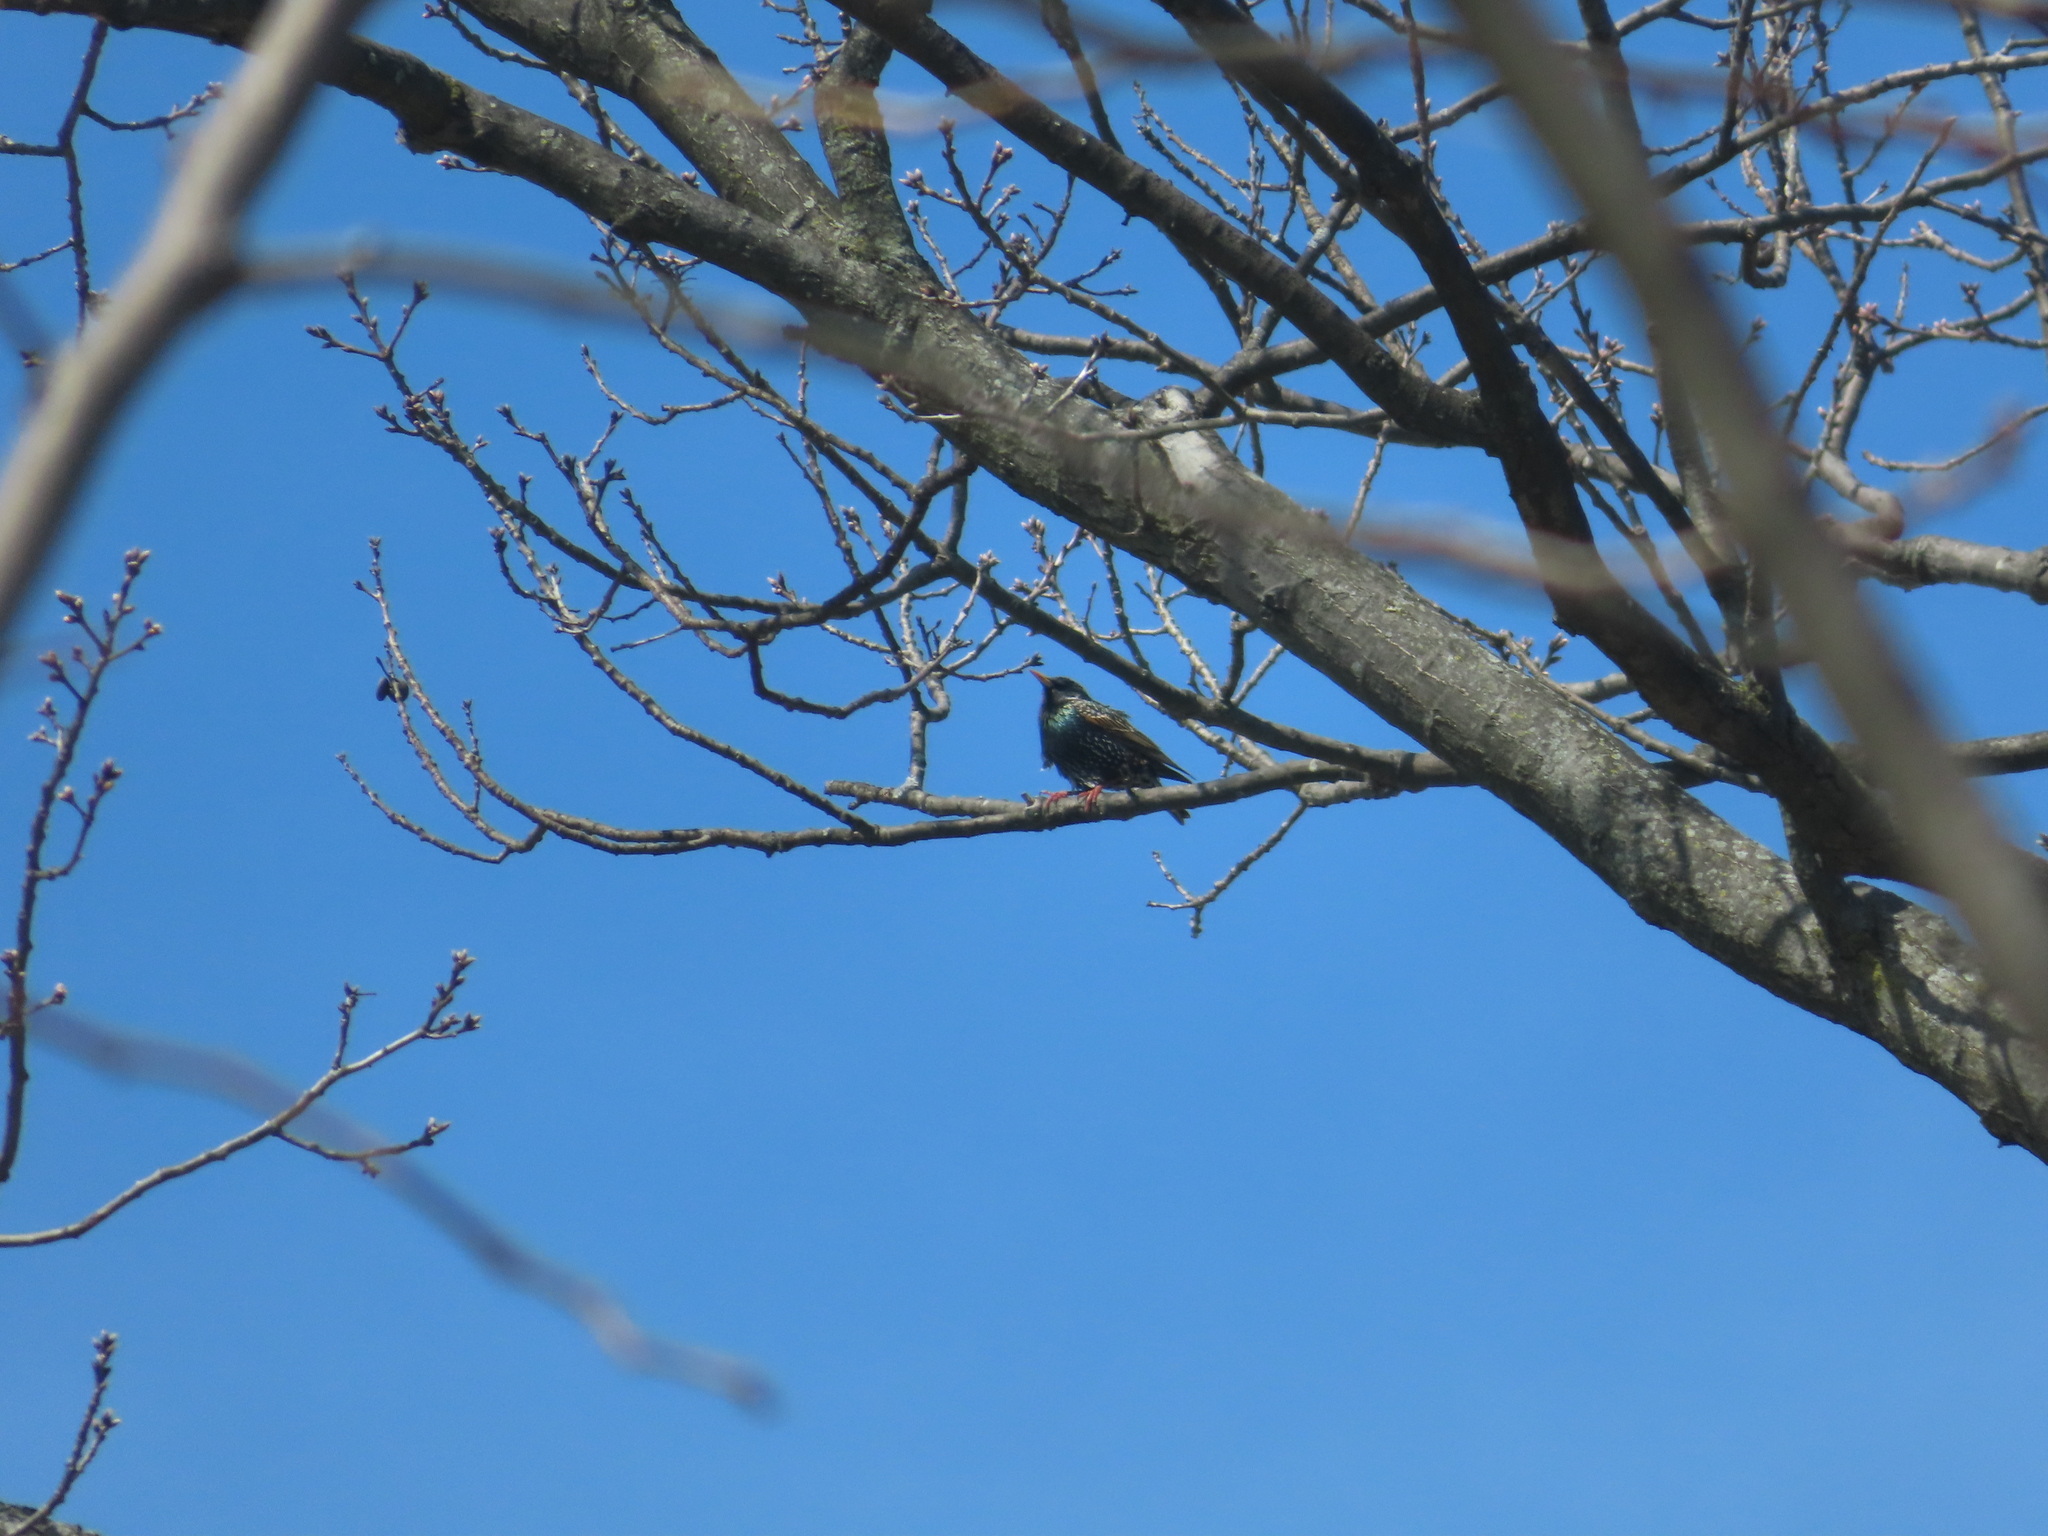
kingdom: Animalia
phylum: Chordata
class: Aves
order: Passeriformes
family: Sturnidae
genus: Sturnus
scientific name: Sturnus vulgaris
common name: Common starling
